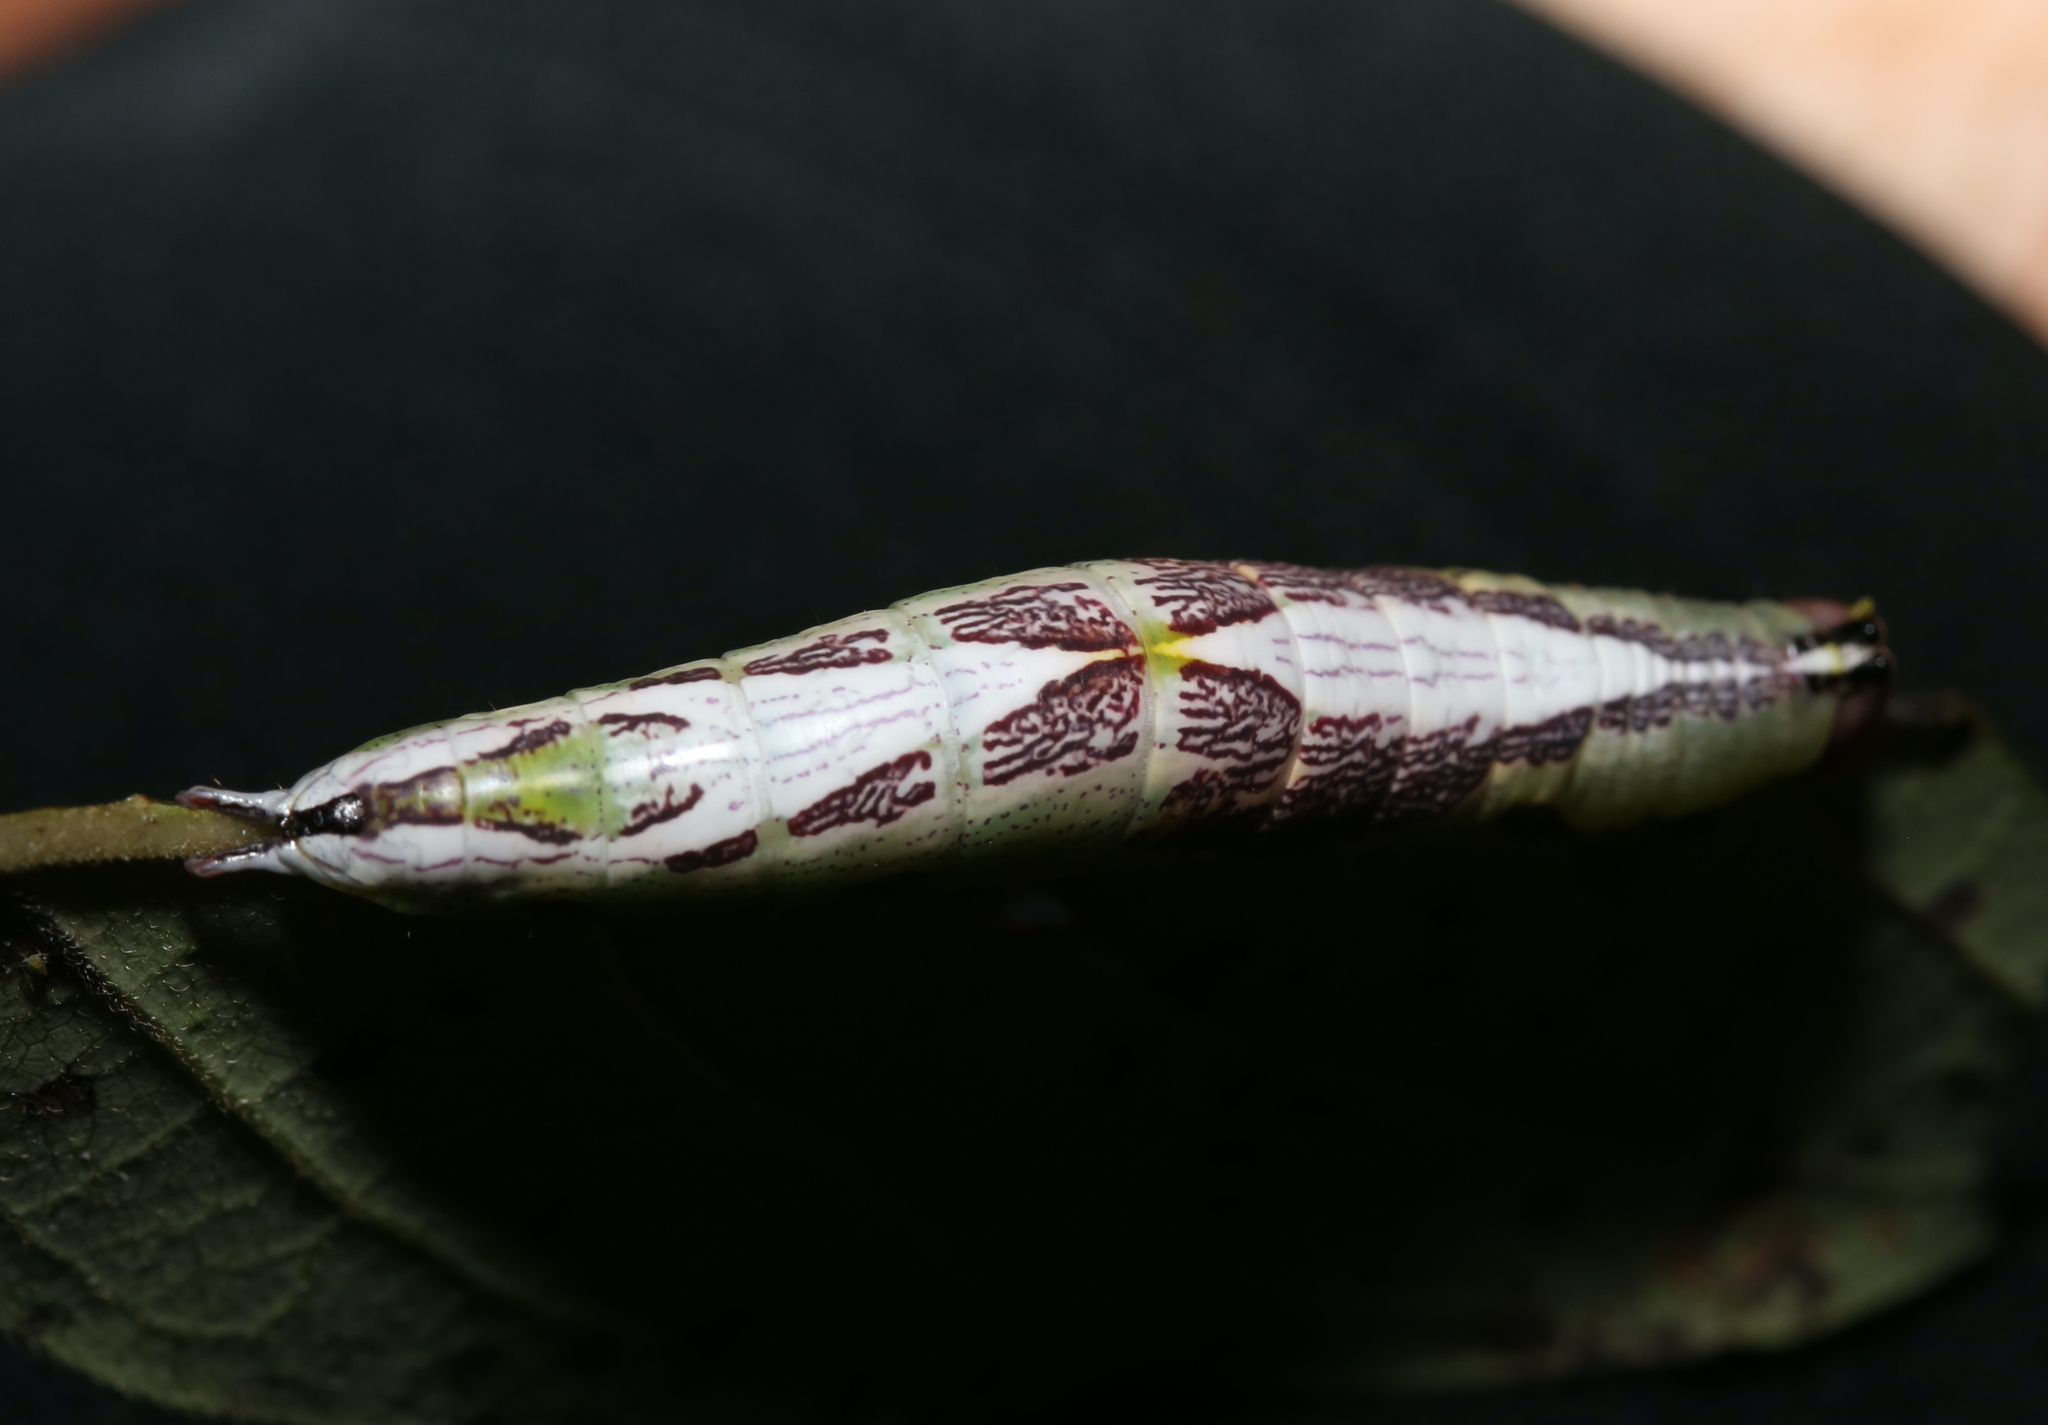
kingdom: Animalia
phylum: Arthropoda
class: Insecta
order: Lepidoptera
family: Notodontidae
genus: Disphragis
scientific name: Disphragis Cecrita biundata
